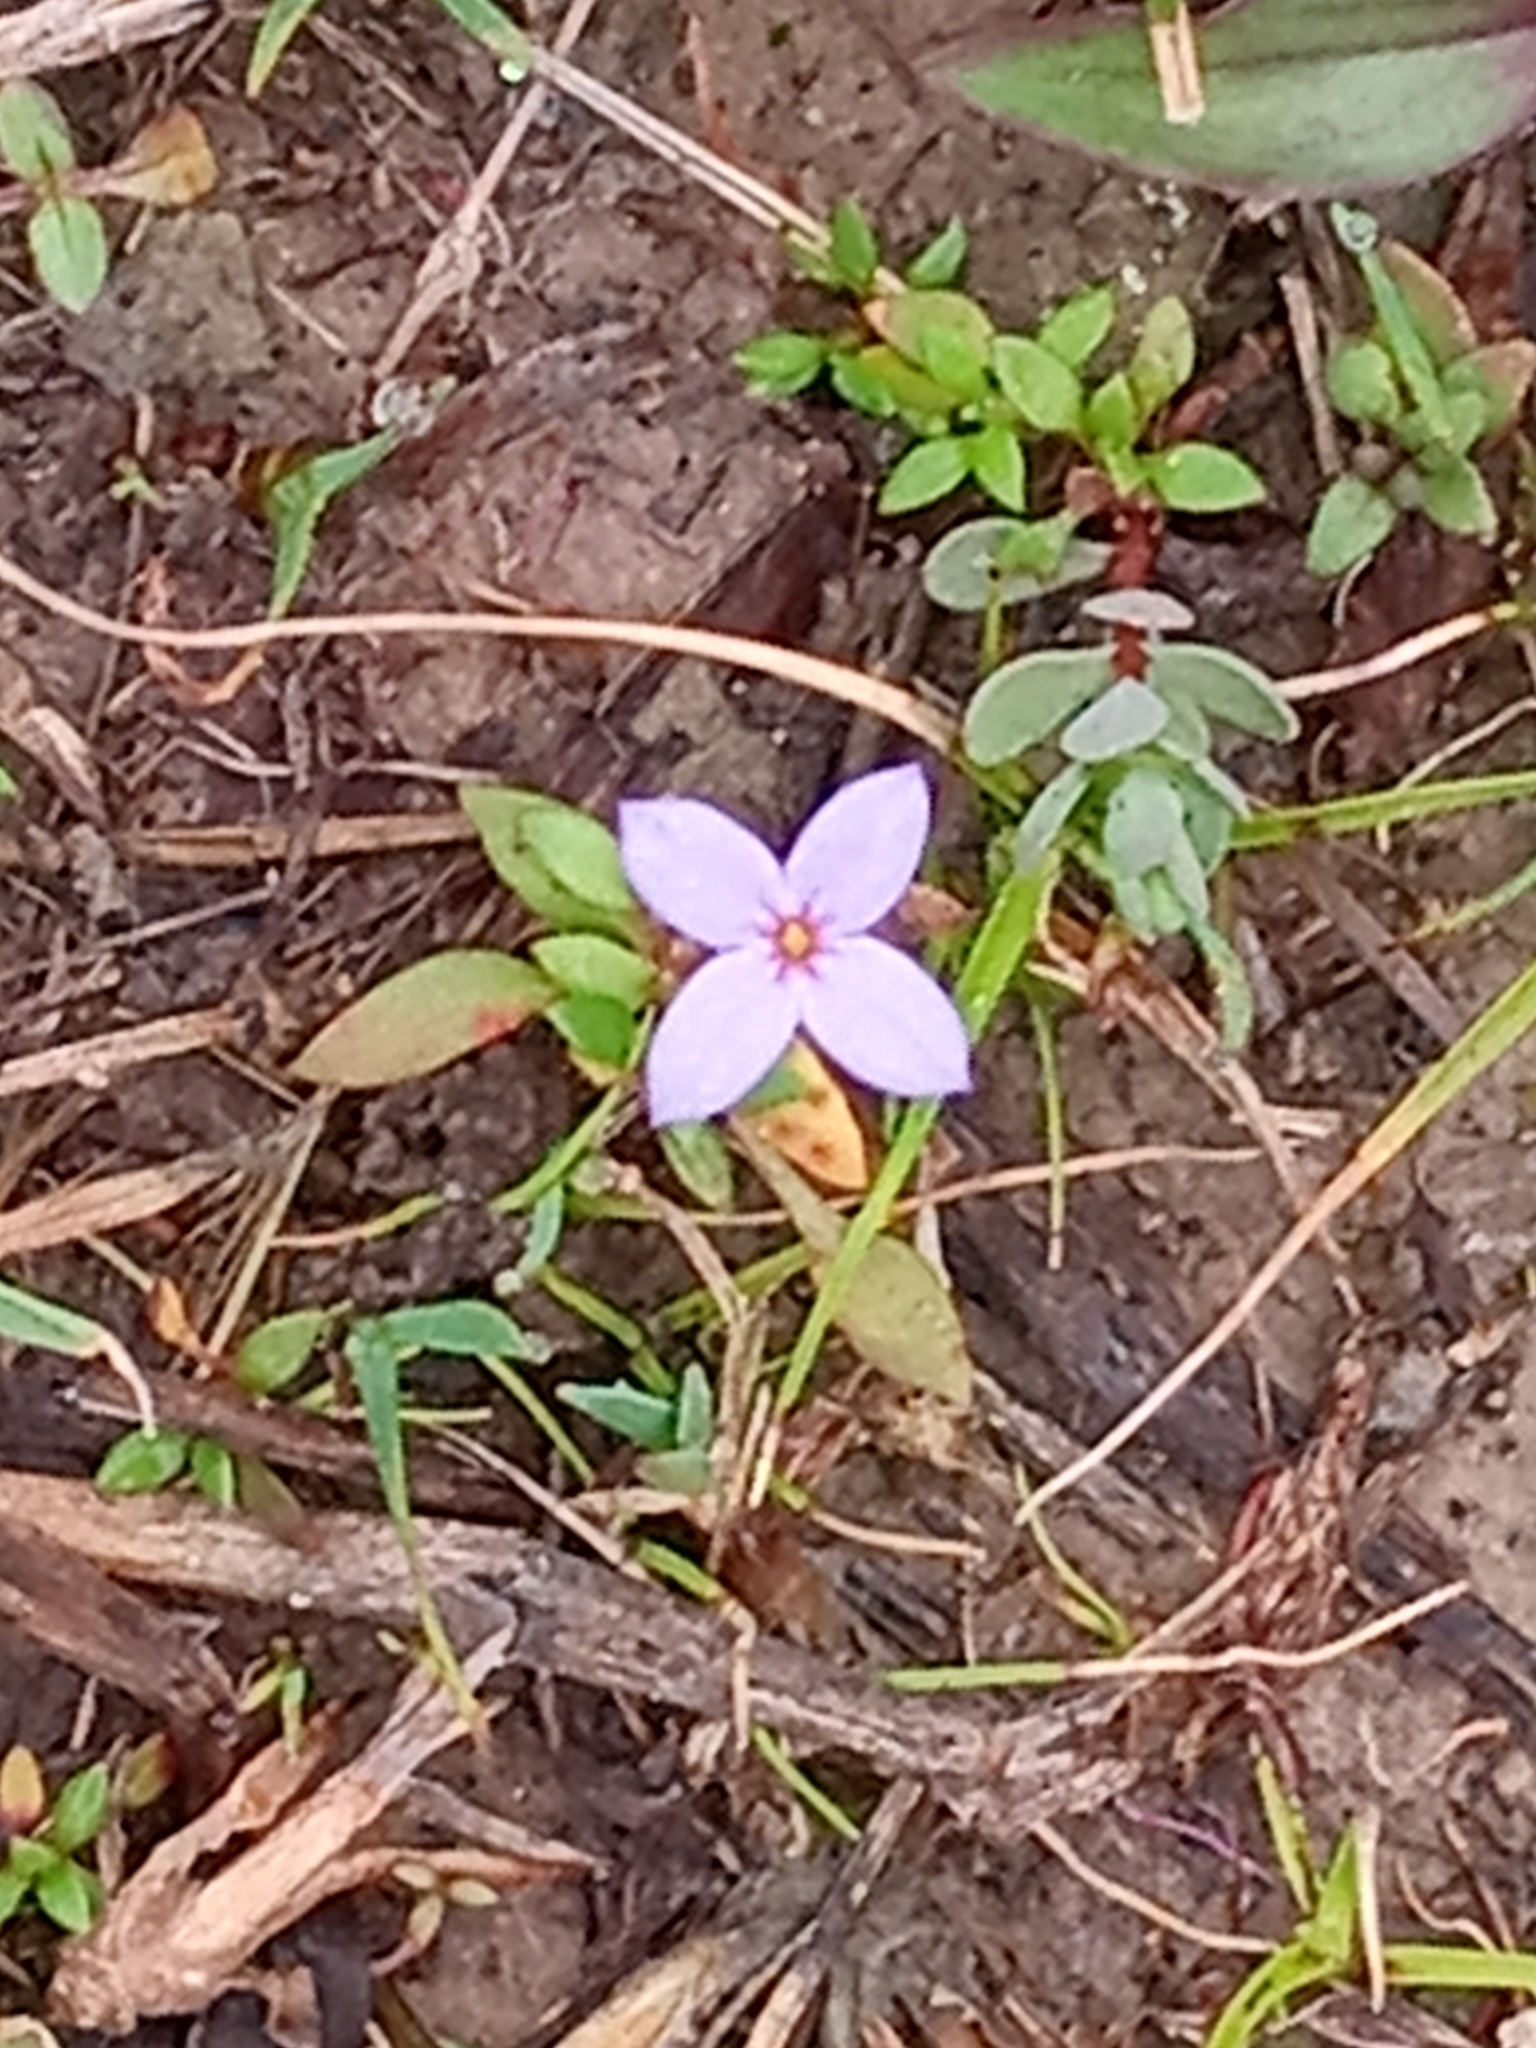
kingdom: Plantae
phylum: Tracheophyta
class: Magnoliopsida
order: Gentianales
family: Rubiaceae
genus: Houstonia
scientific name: Houstonia pusilla
